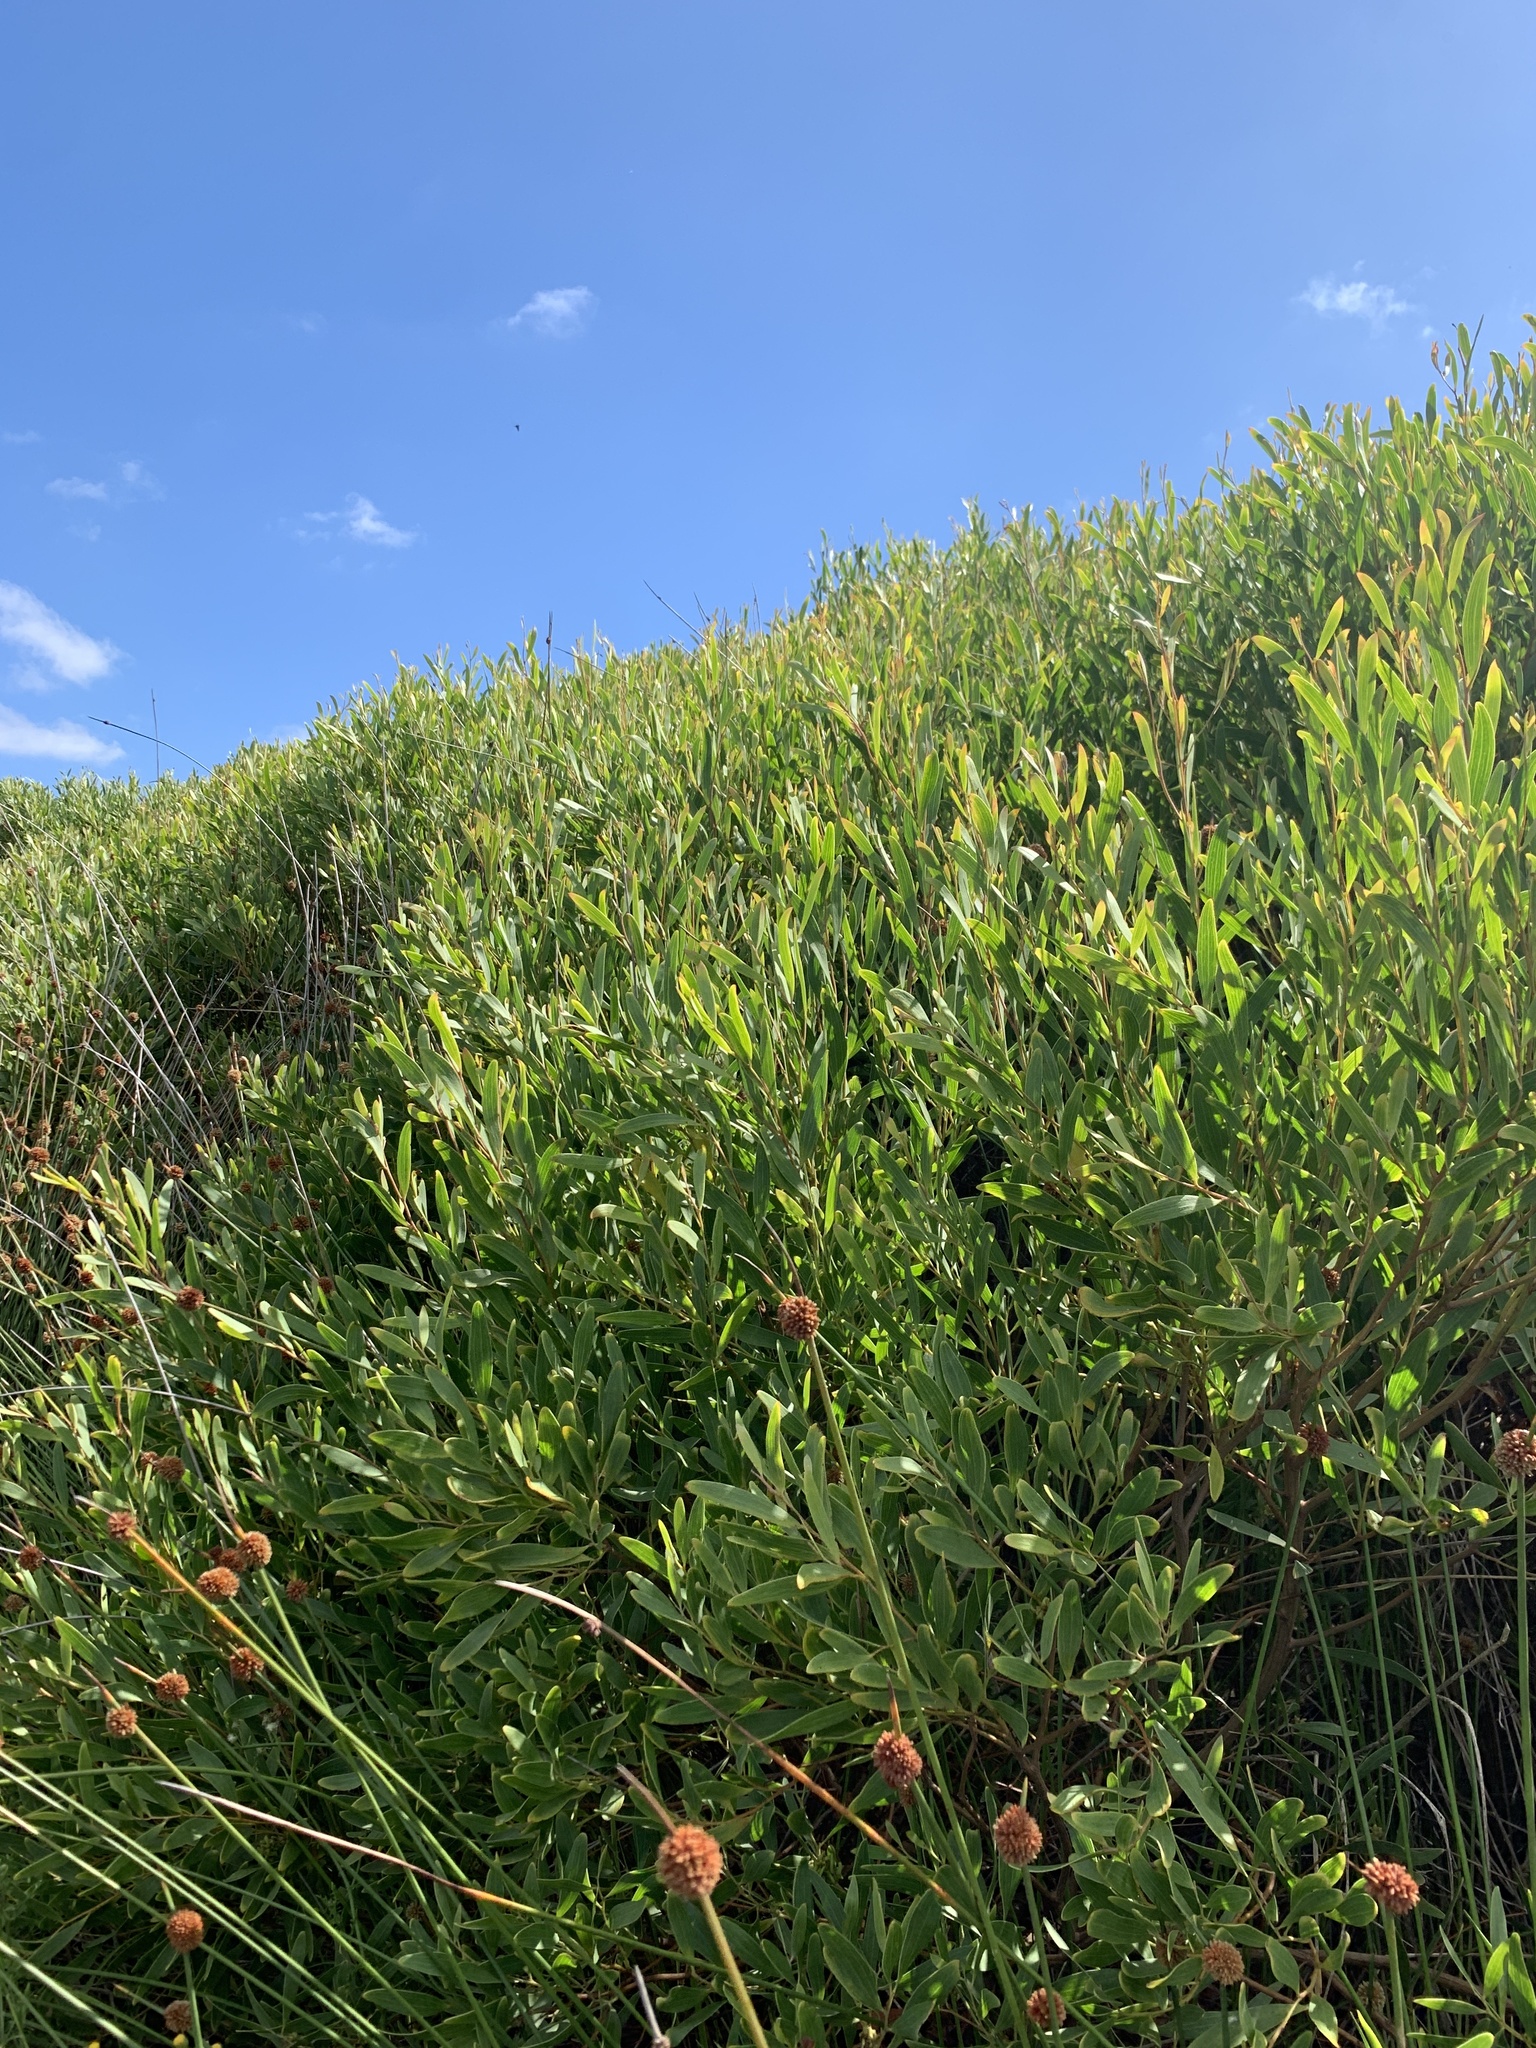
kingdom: Plantae
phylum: Tracheophyta
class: Magnoliopsida
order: Fabales
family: Fabaceae
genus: Acacia
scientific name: Acacia cyclops
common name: Coastal wattle
